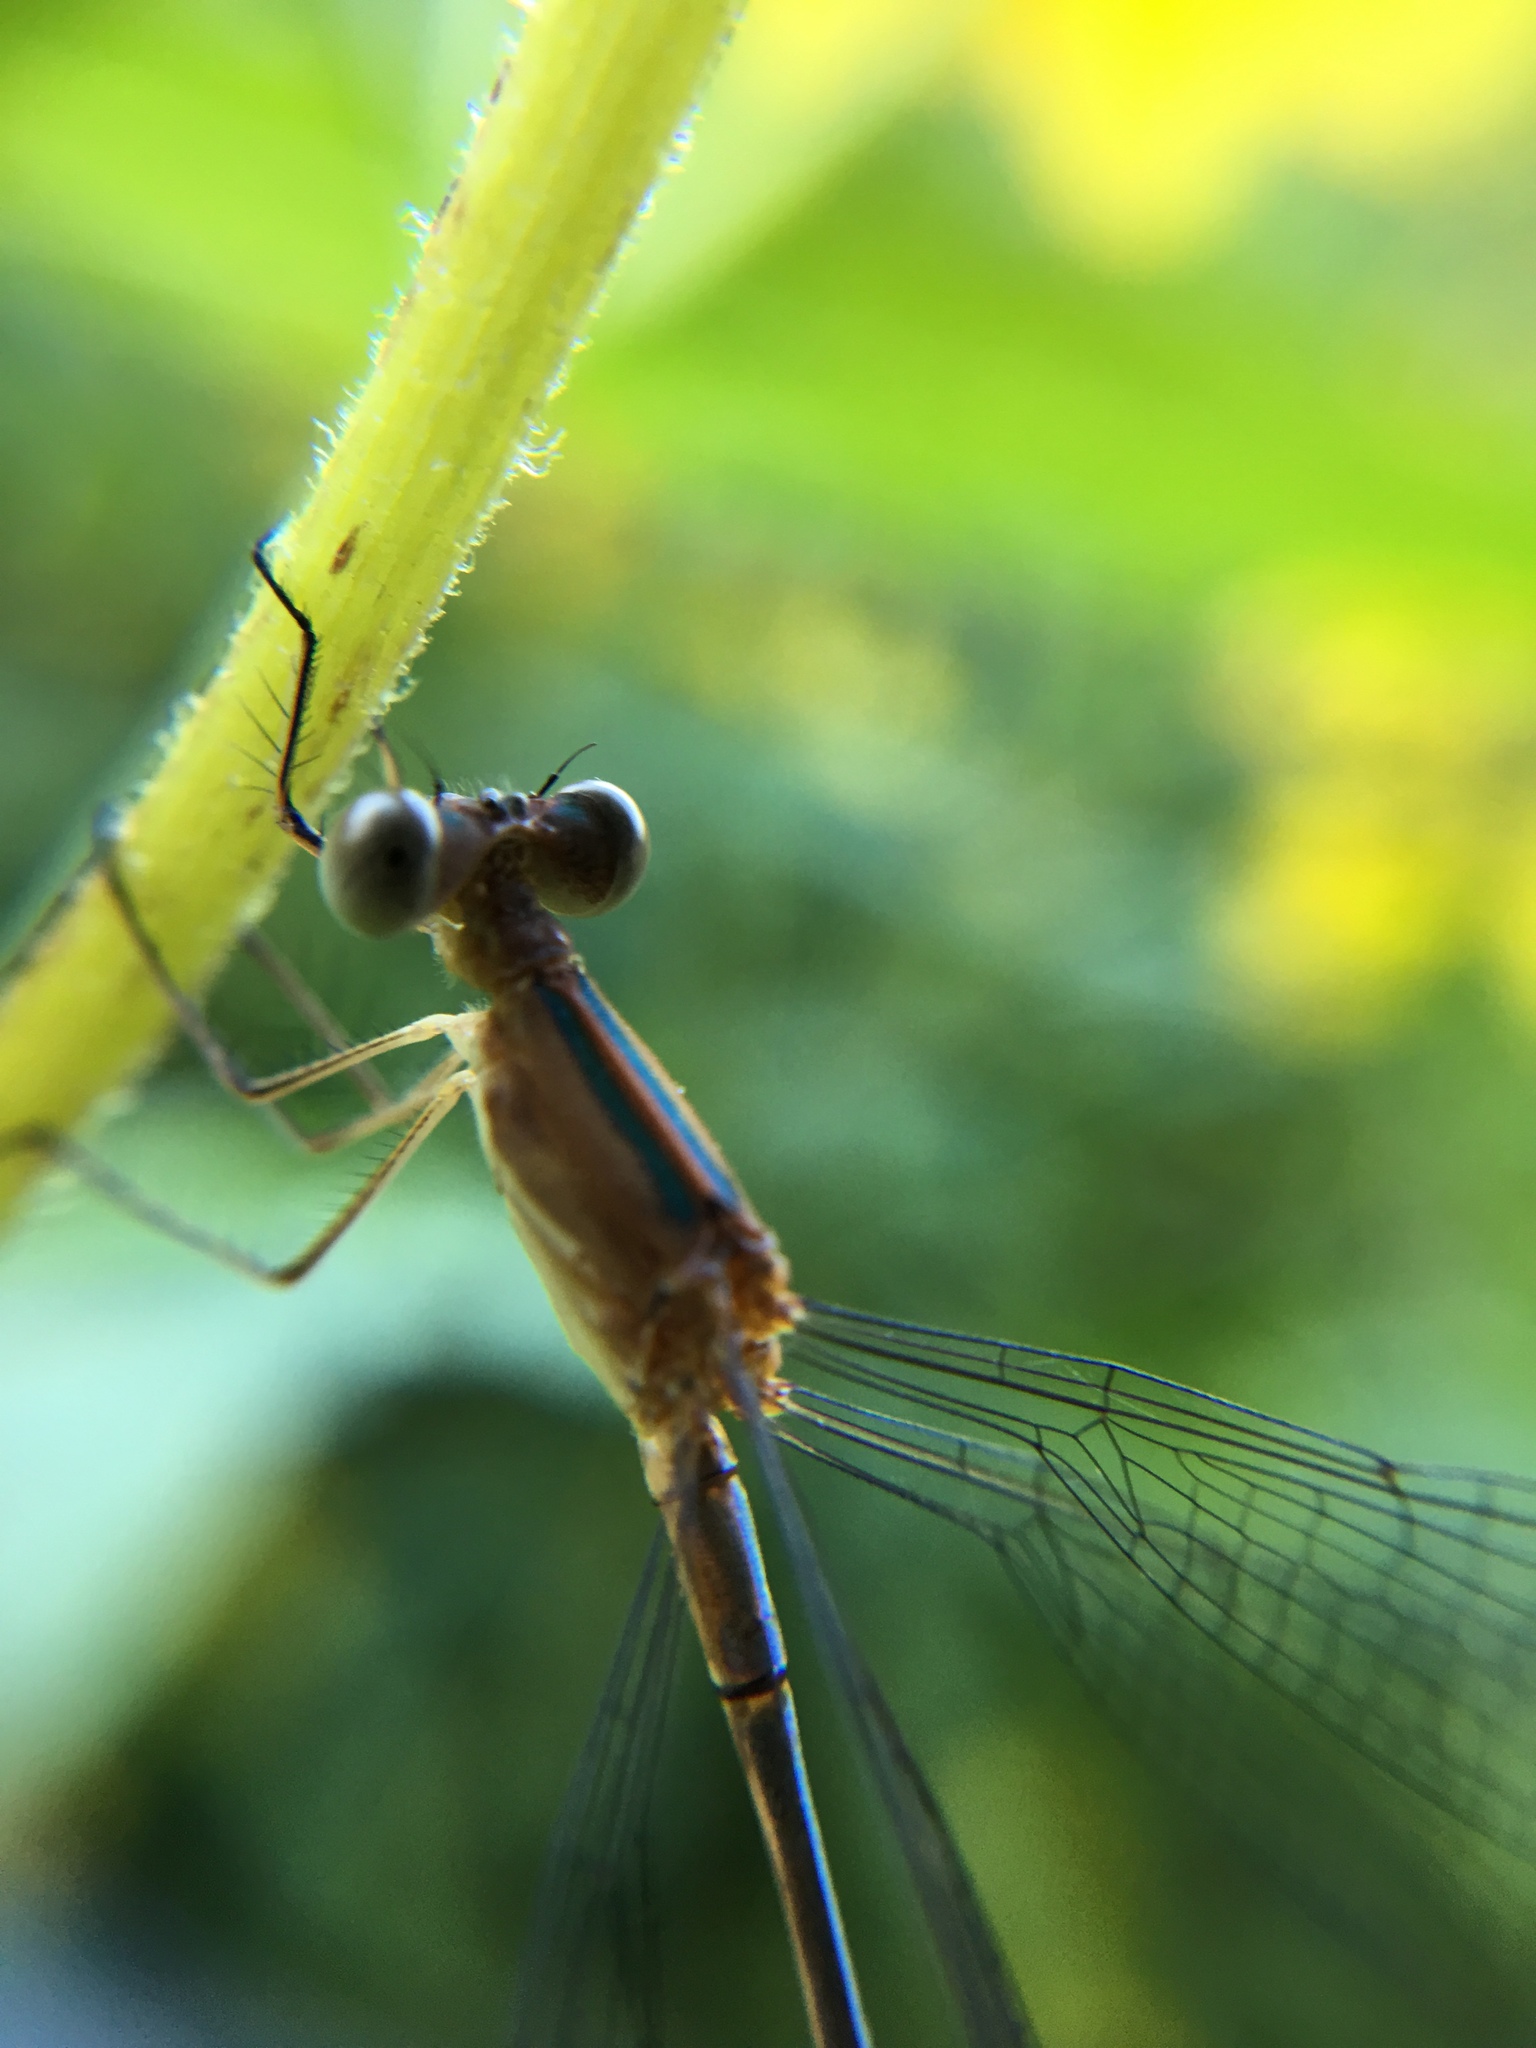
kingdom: Animalia
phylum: Arthropoda
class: Insecta
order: Odonata
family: Lestidae
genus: Lestes
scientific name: Lestes viridulus
